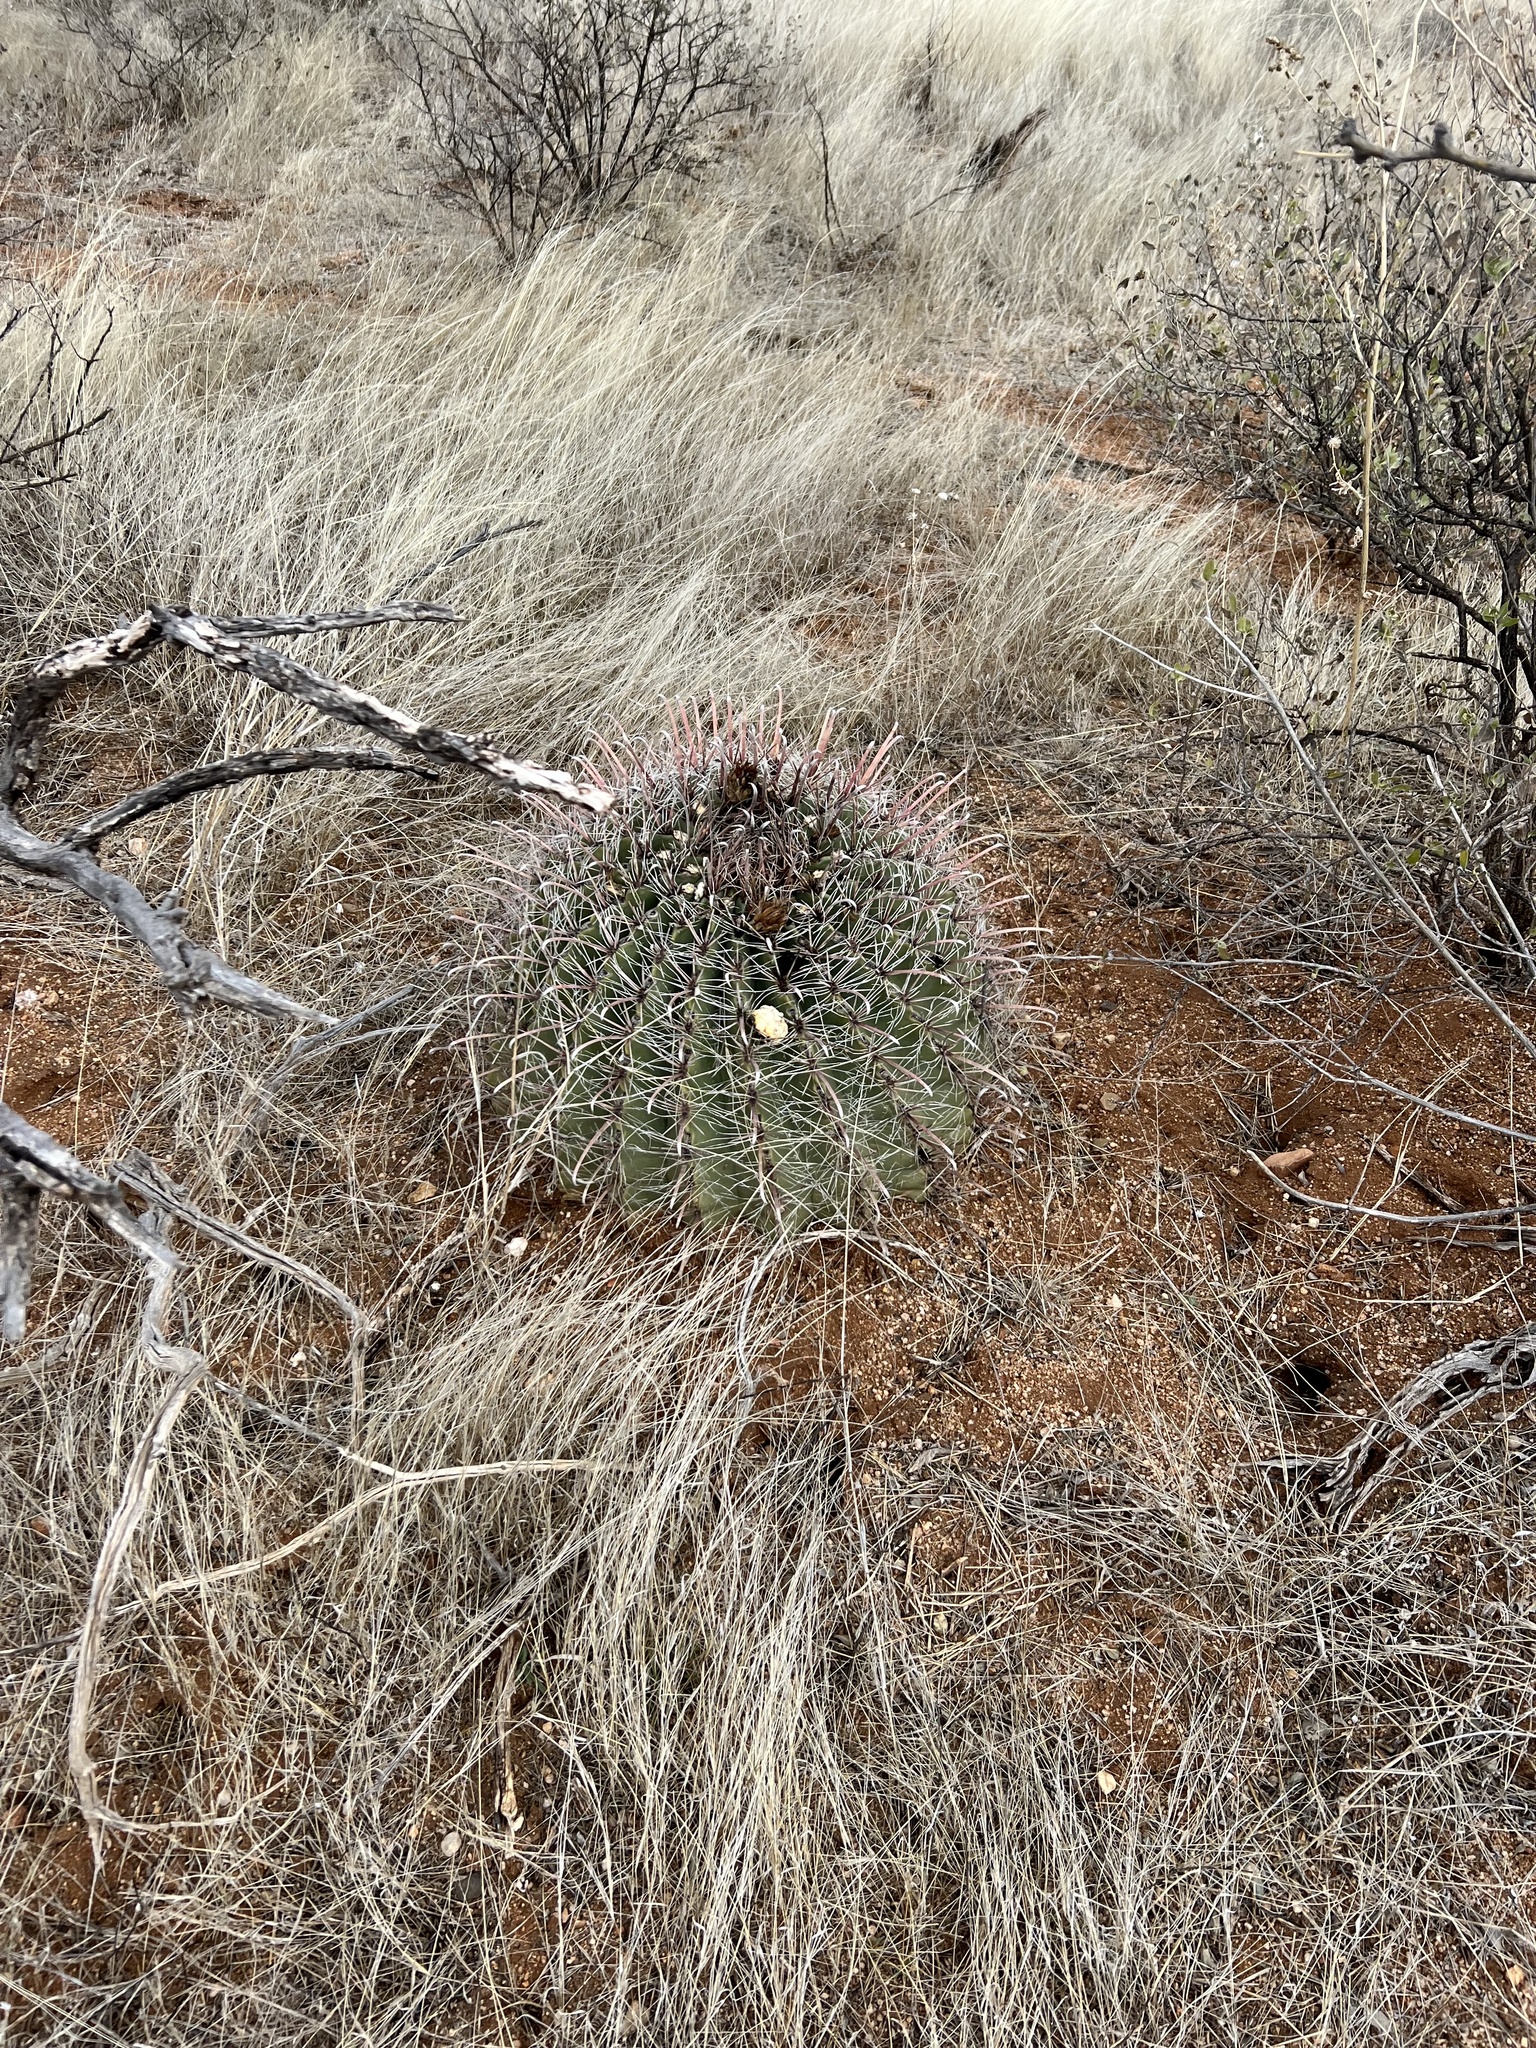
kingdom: Plantae
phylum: Tracheophyta
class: Magnoliopsida
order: Caryophyllales
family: Cactaceae
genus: Ferocactus
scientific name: Ferocactus wislizeni
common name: Candy barrel cactus
